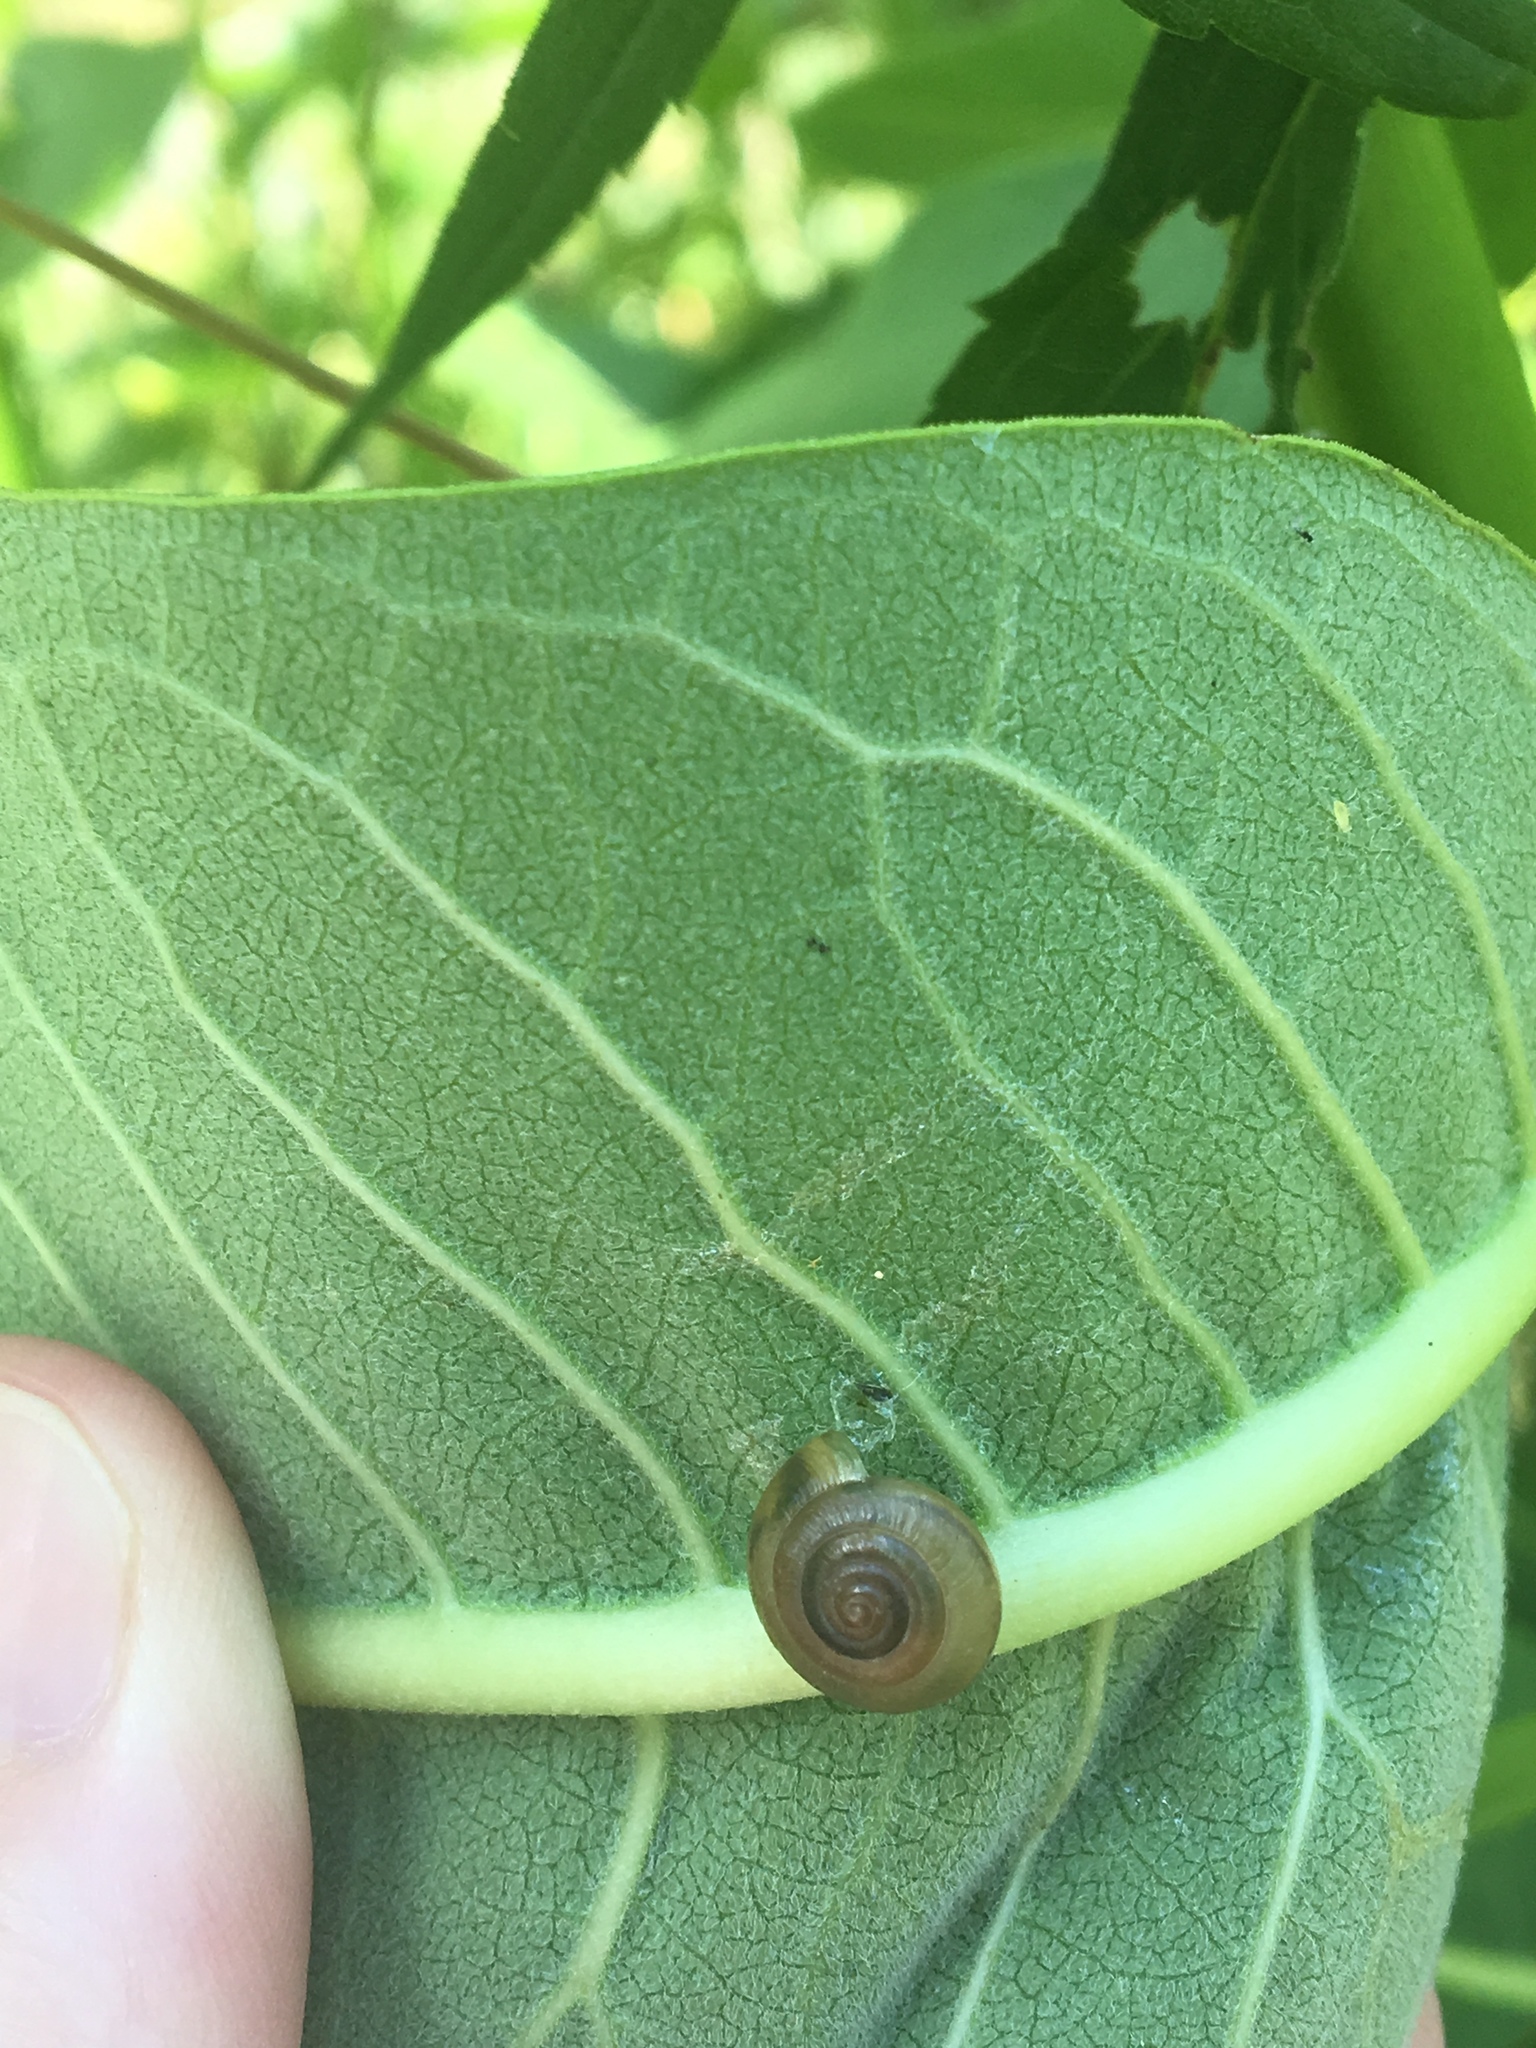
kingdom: Animalia
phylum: Mollusca
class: Gastropoda
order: Stylommatophora
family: Gastrodontidae
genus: Ventridens
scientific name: Ventridens ligera
